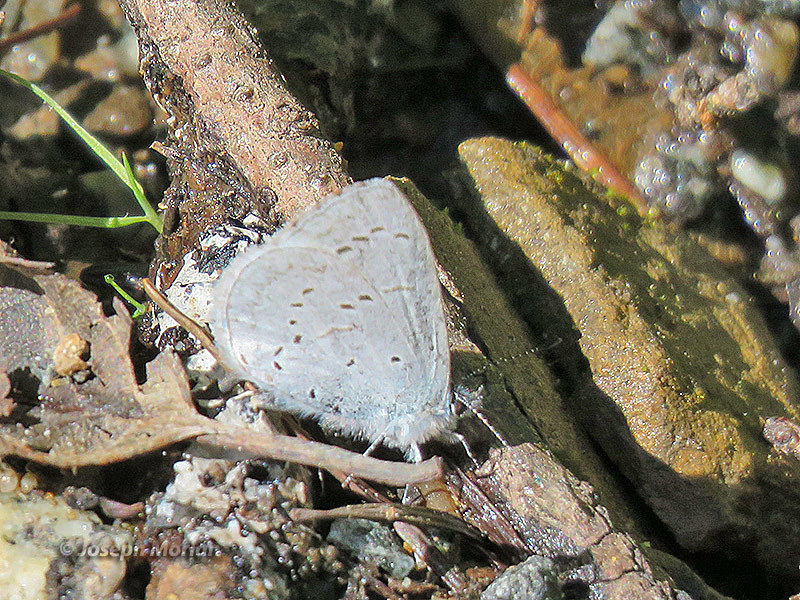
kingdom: Animalia
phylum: Arthropoda
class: Insecta
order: Lepidoptera
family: Lycaenidae
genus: Celastrina
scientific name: Celastrina ladon
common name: Spring azure
